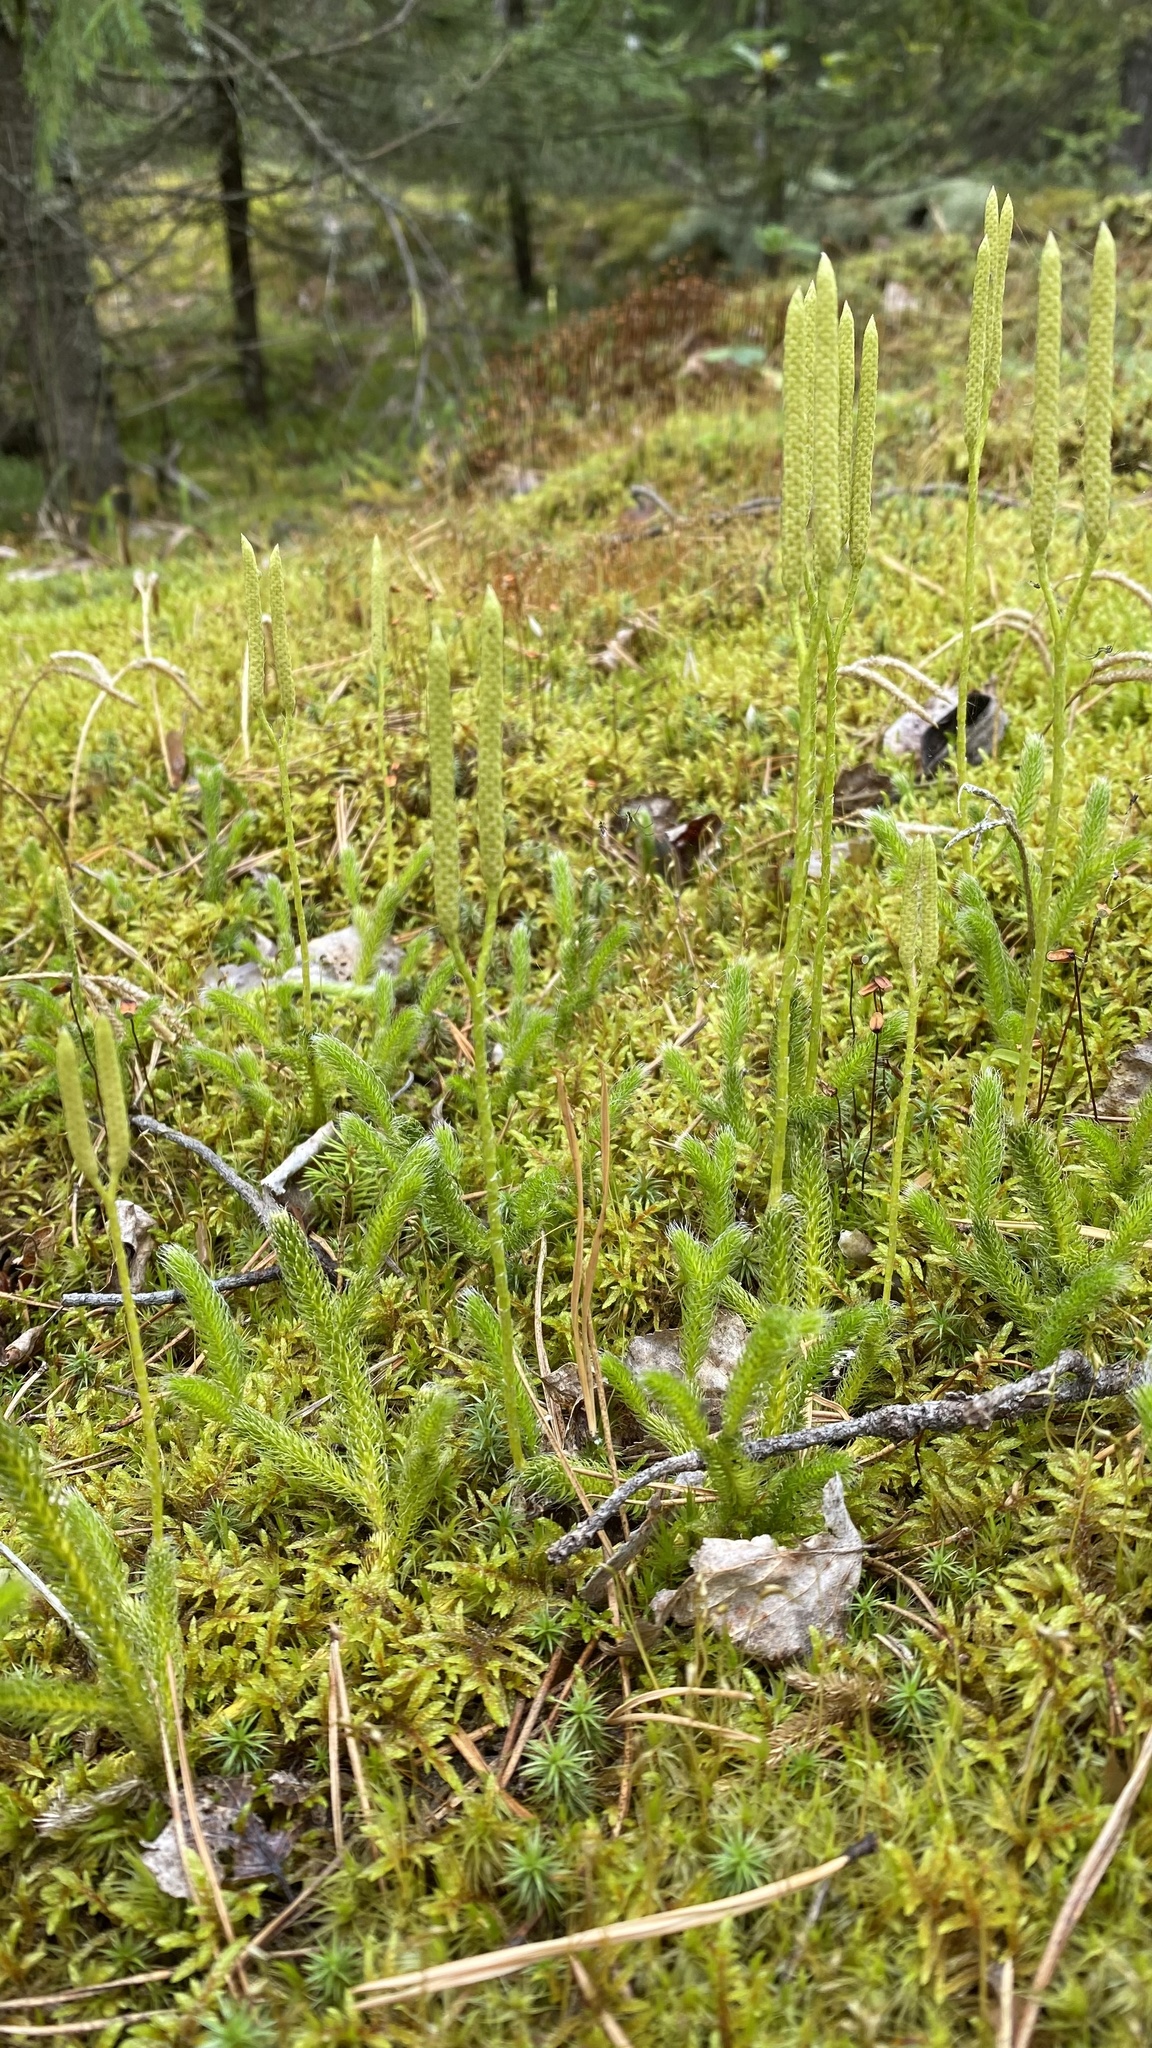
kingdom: Plantae
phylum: Tracheophyta
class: Lycopodiopsida
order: Lycopodiales
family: Lycopodiaceae
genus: Lycopodium
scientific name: Lycopodium clavatum
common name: Stag's-horn clubmoss
